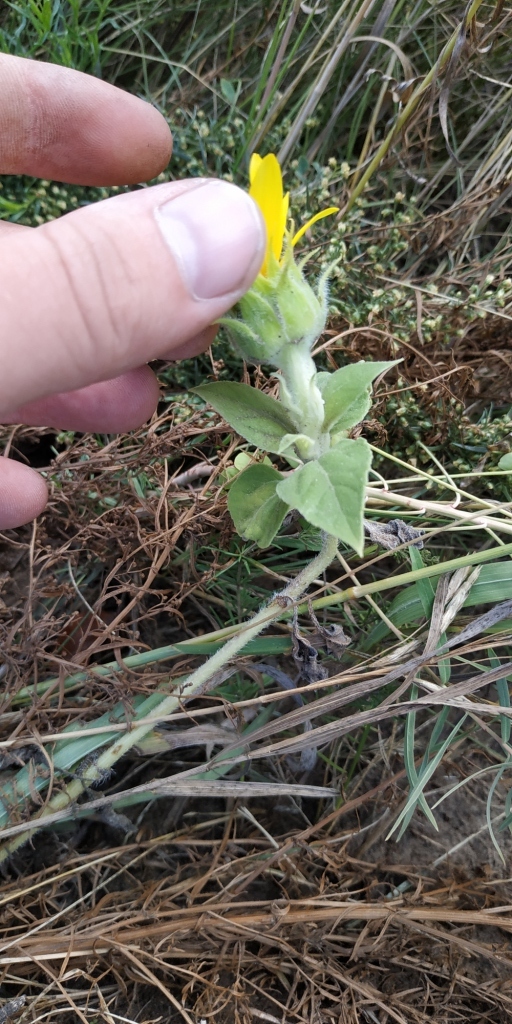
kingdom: Plantae
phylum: Tracheophyta
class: Magnoliopsida
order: Asterales
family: Asteraceae
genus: Helianthus
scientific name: Helianthus annuus
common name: Sunflower
